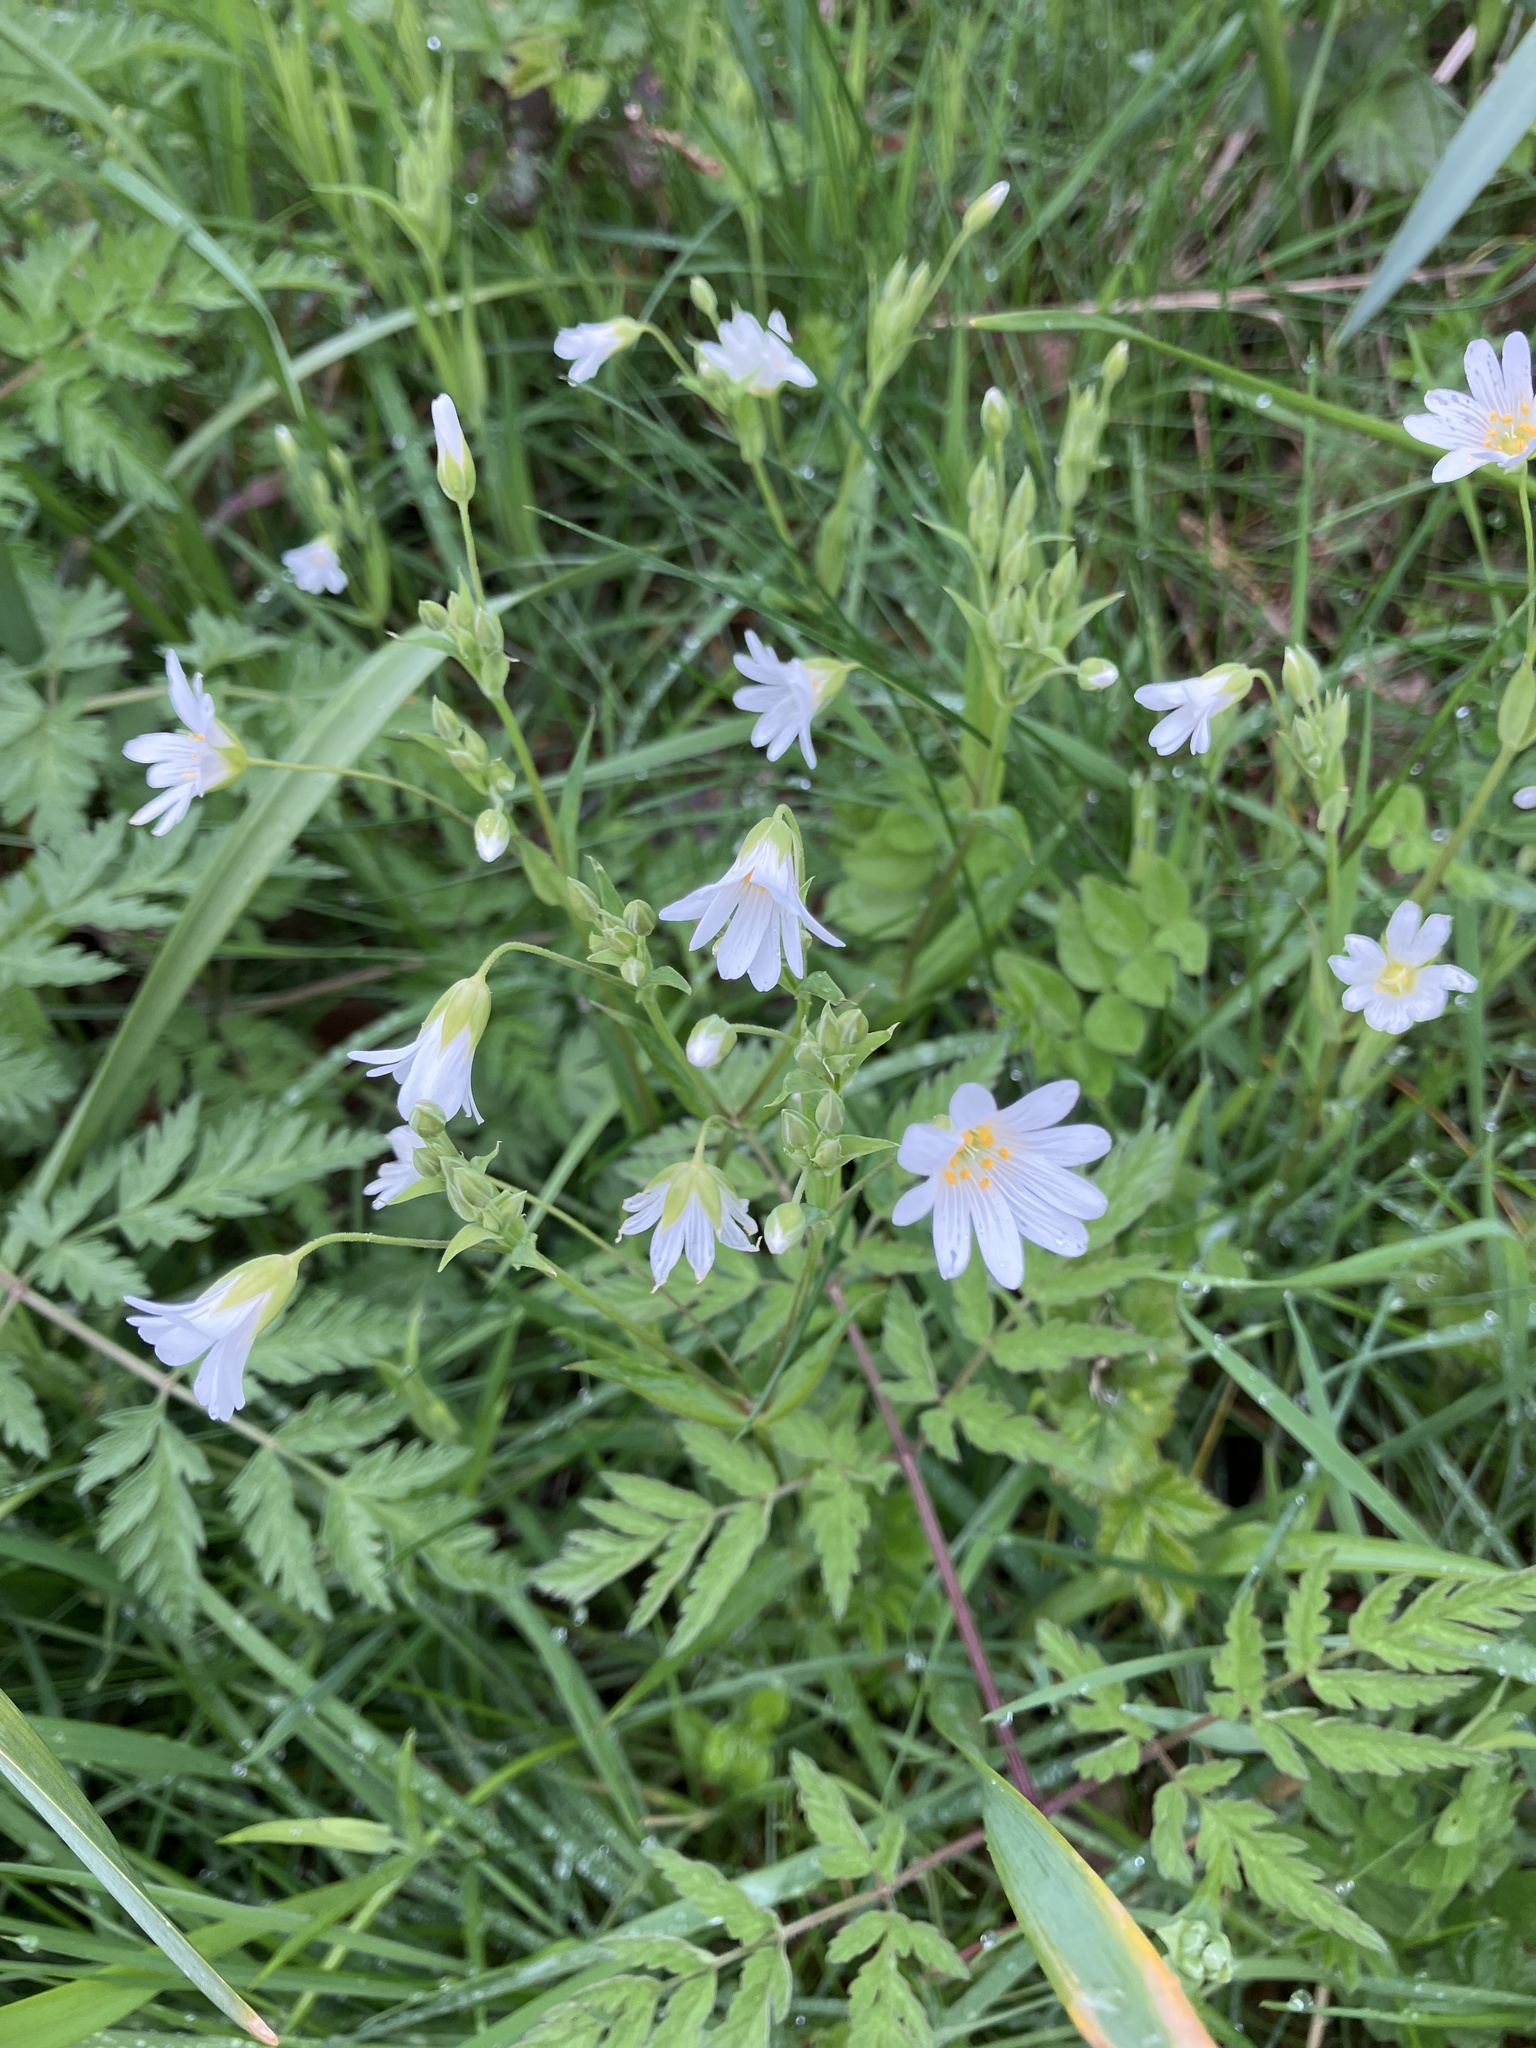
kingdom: Plantae
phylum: Tracheophyta
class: Magnoliopsida
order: Caryophyllales
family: Caryophyllaceae
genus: Rabelera
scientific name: Rabelera holostea
